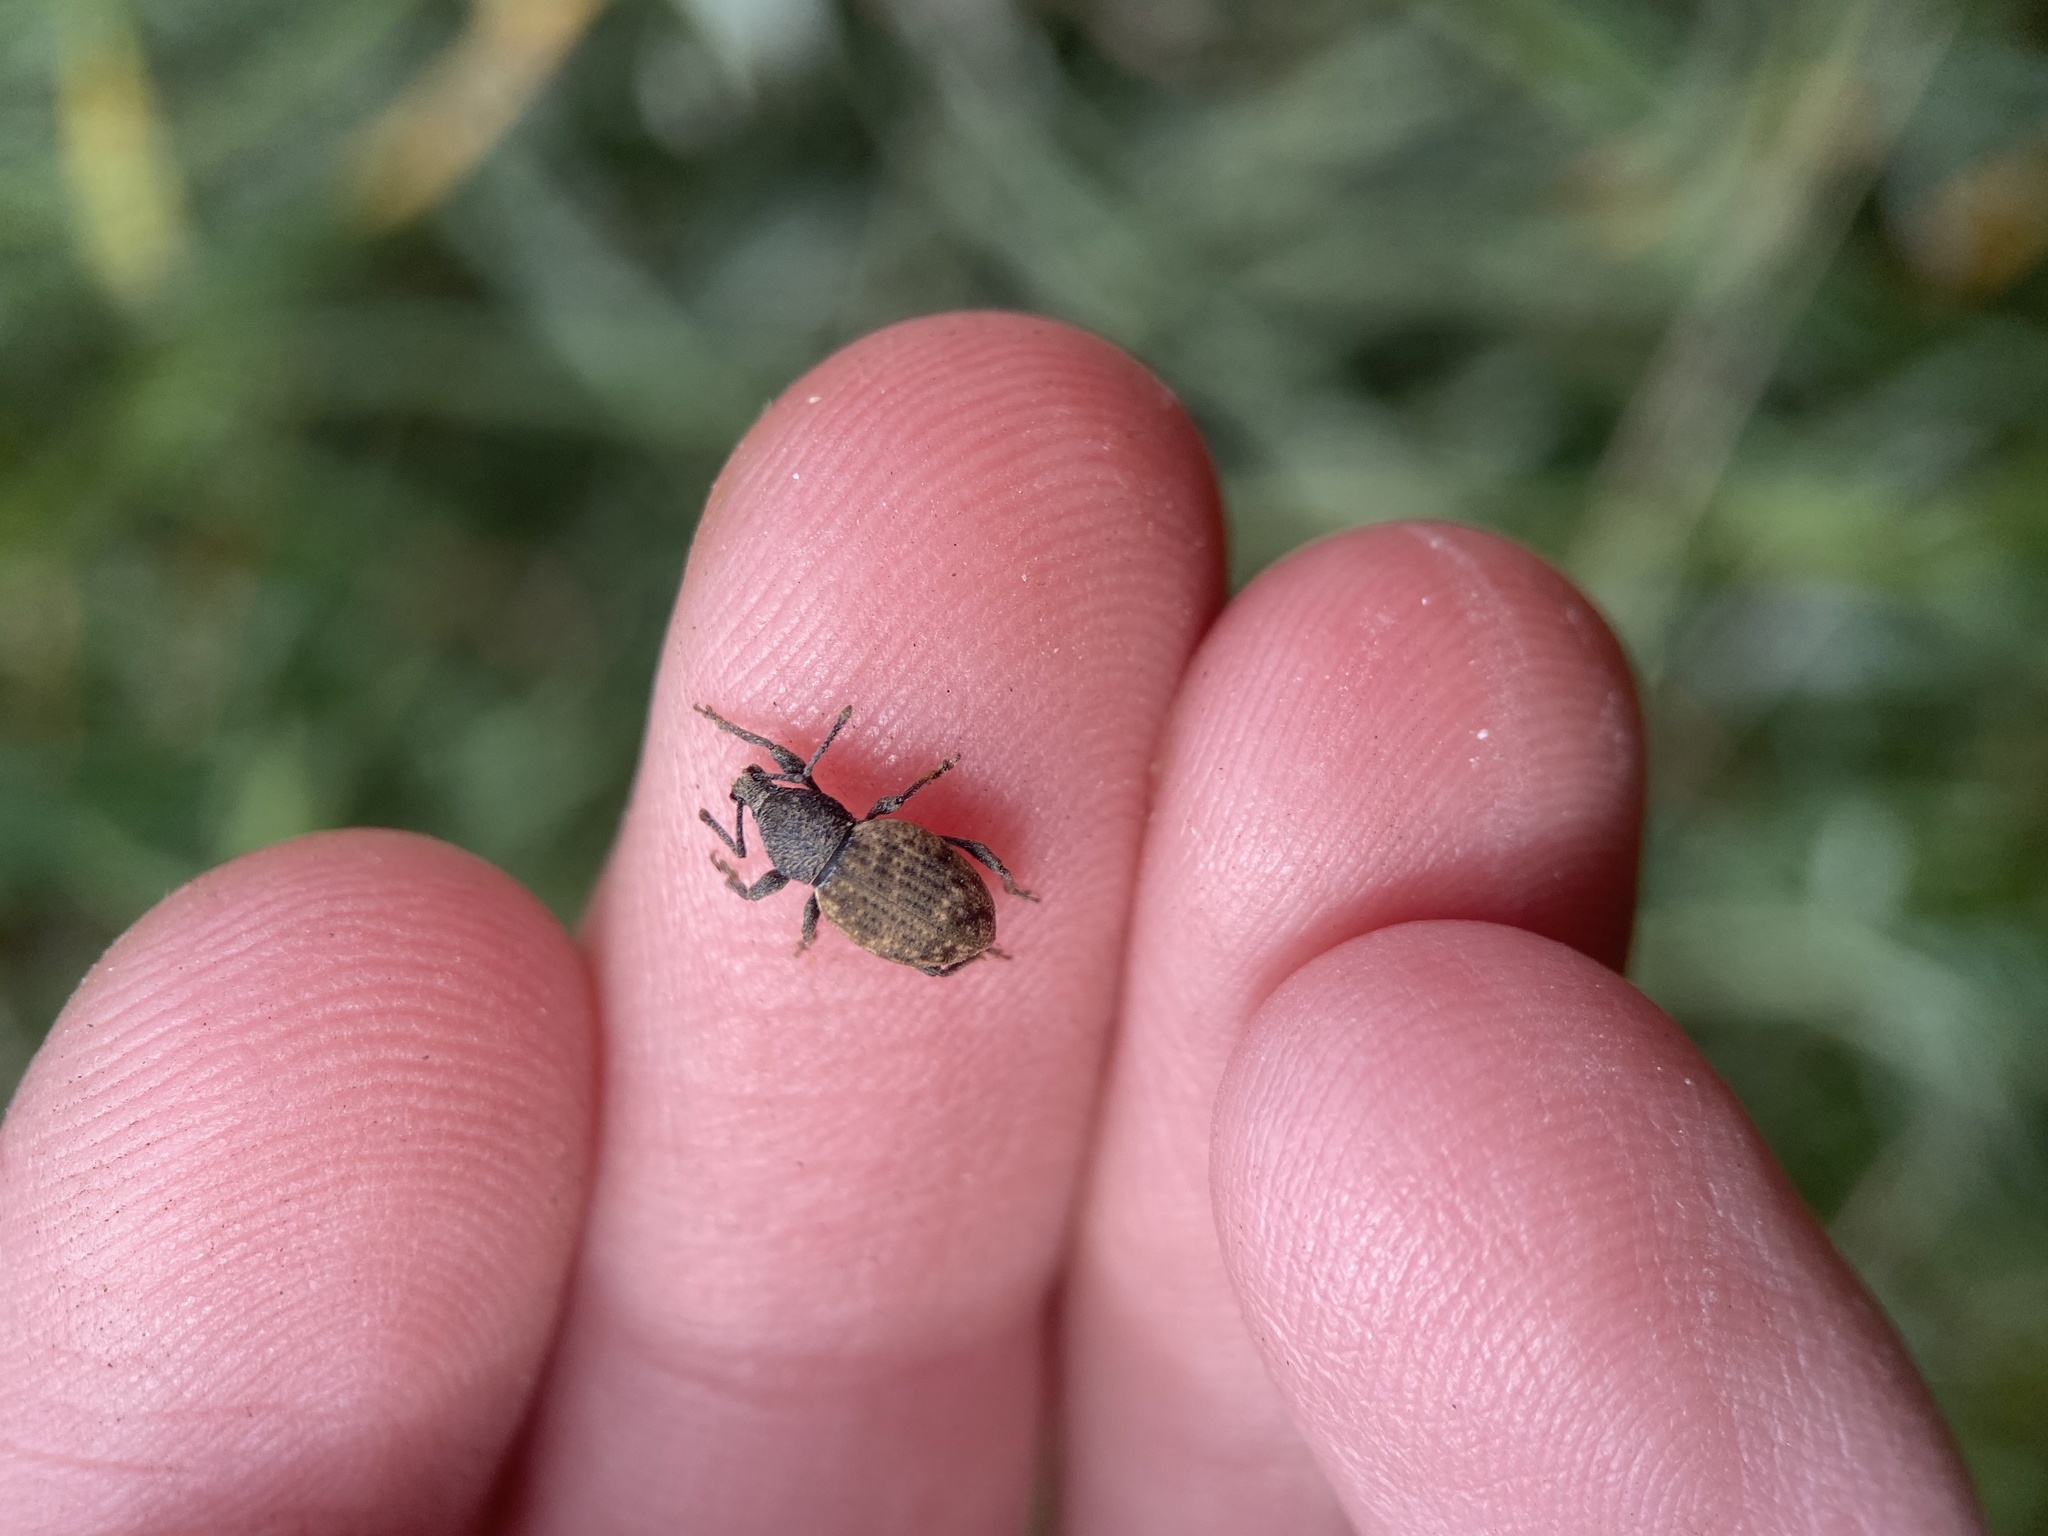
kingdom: Animalia
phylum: Arthropoda
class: Insecta
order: Coleoptera
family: Curculionidae
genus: Otiorhynchus
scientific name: Otiorhynchus raucus
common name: Weevil
